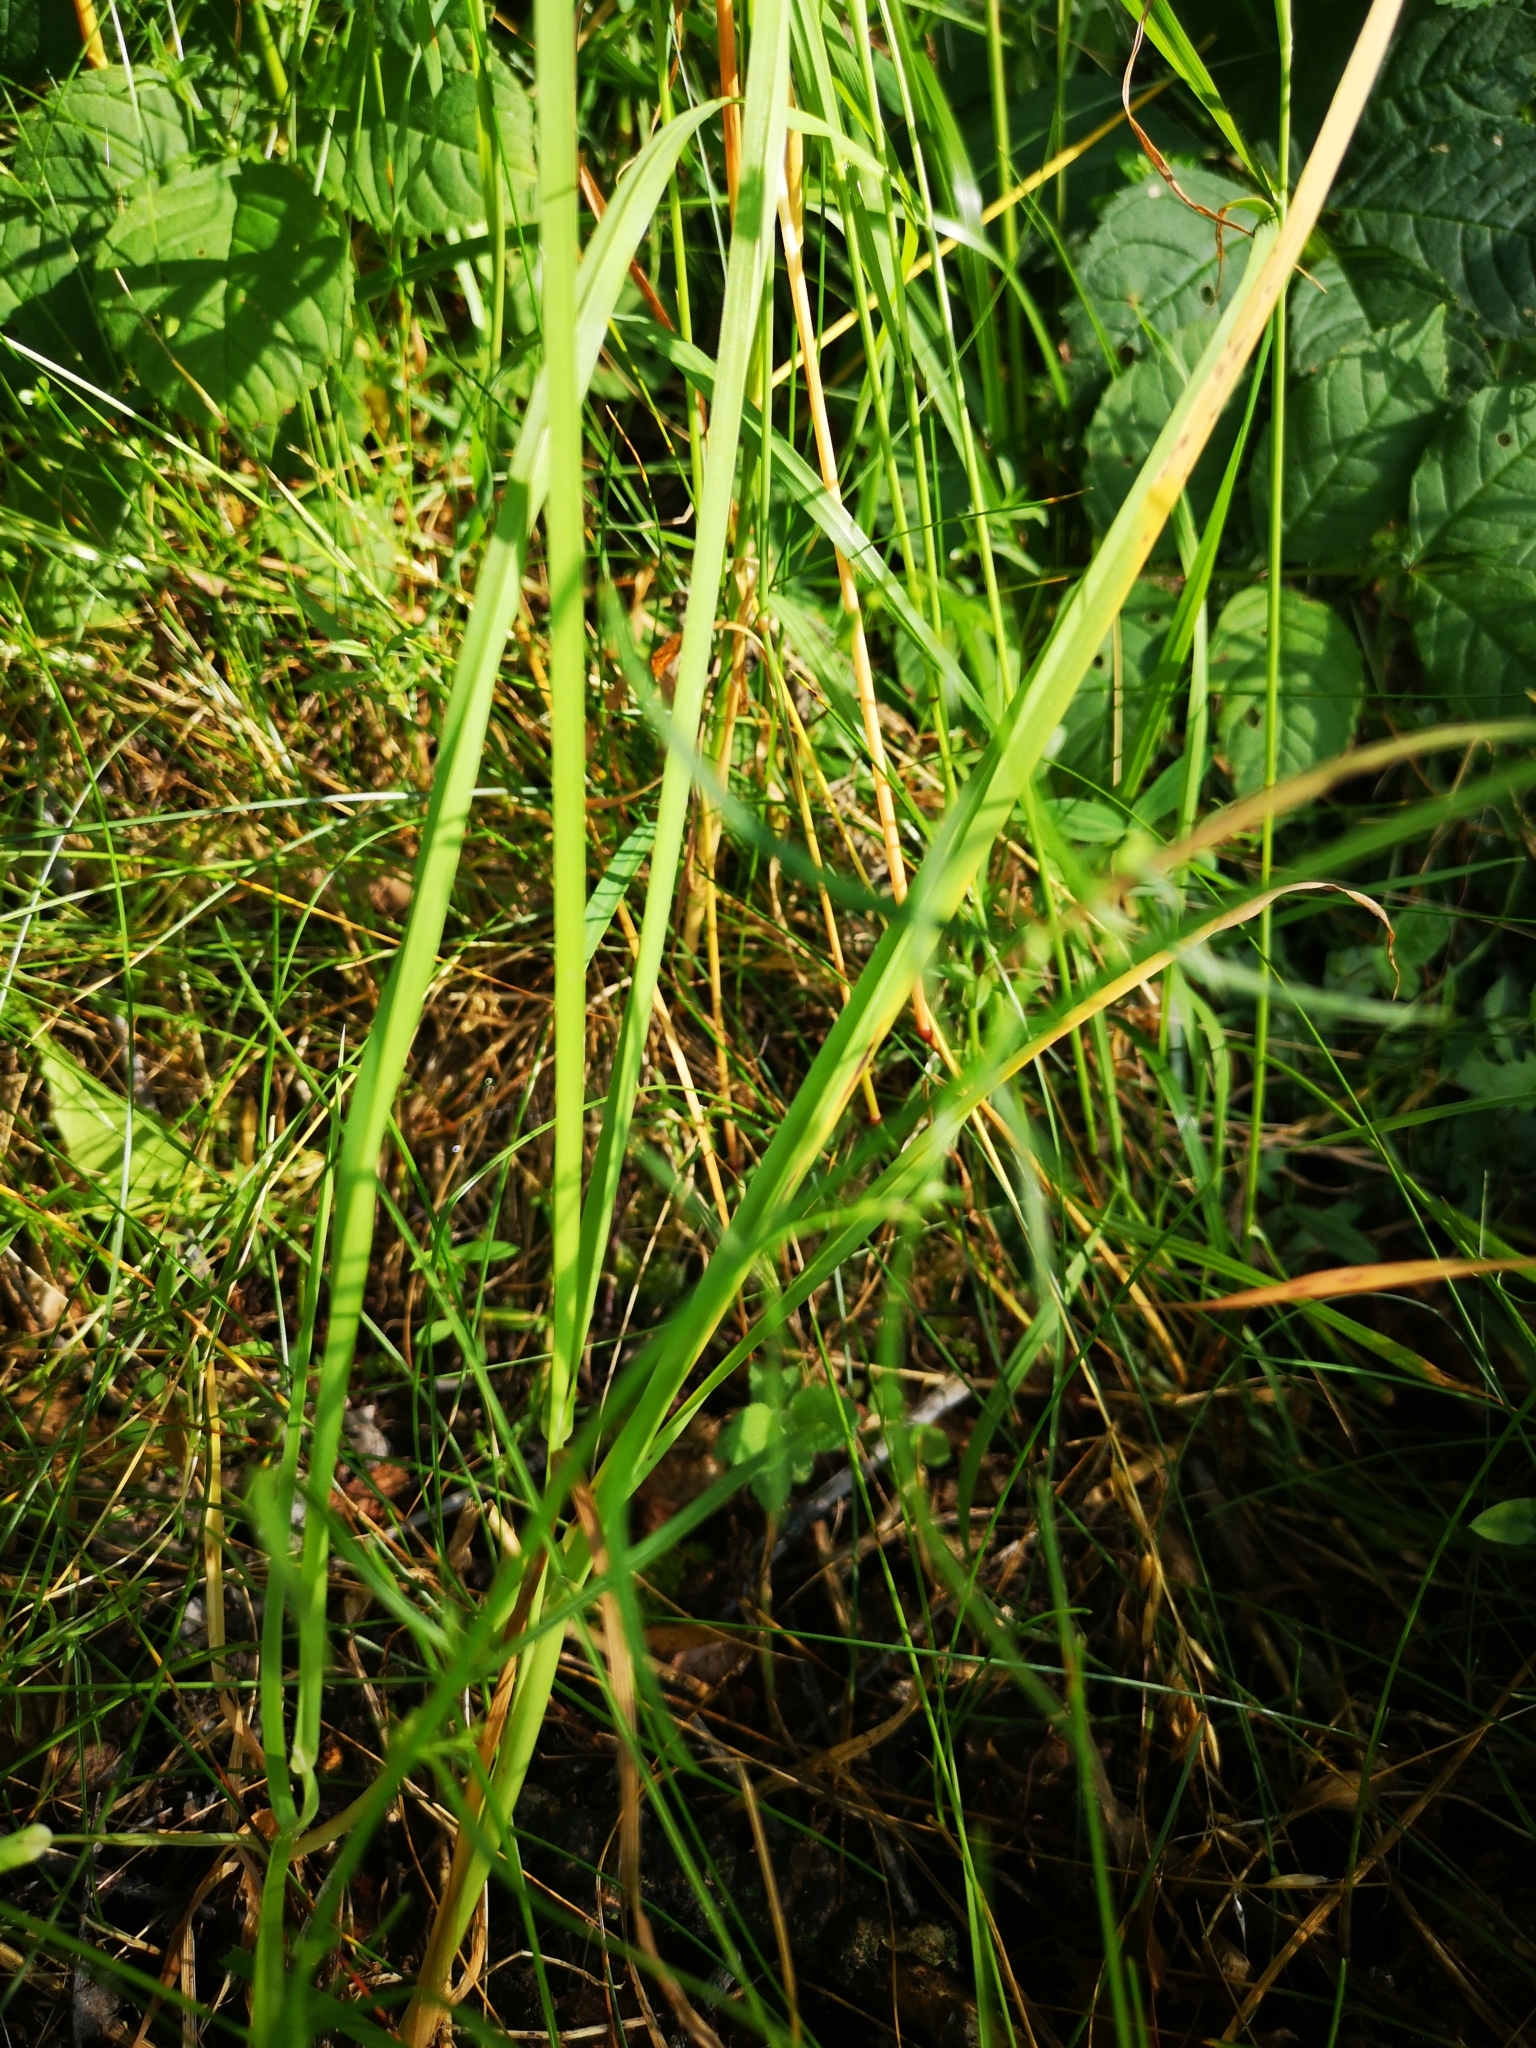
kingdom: Plantae
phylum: Tracheophyta
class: Magnoliopsida
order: Asterales
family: Campanulaceae
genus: Campanula
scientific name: Campanula rotundifolia
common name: Harebell
